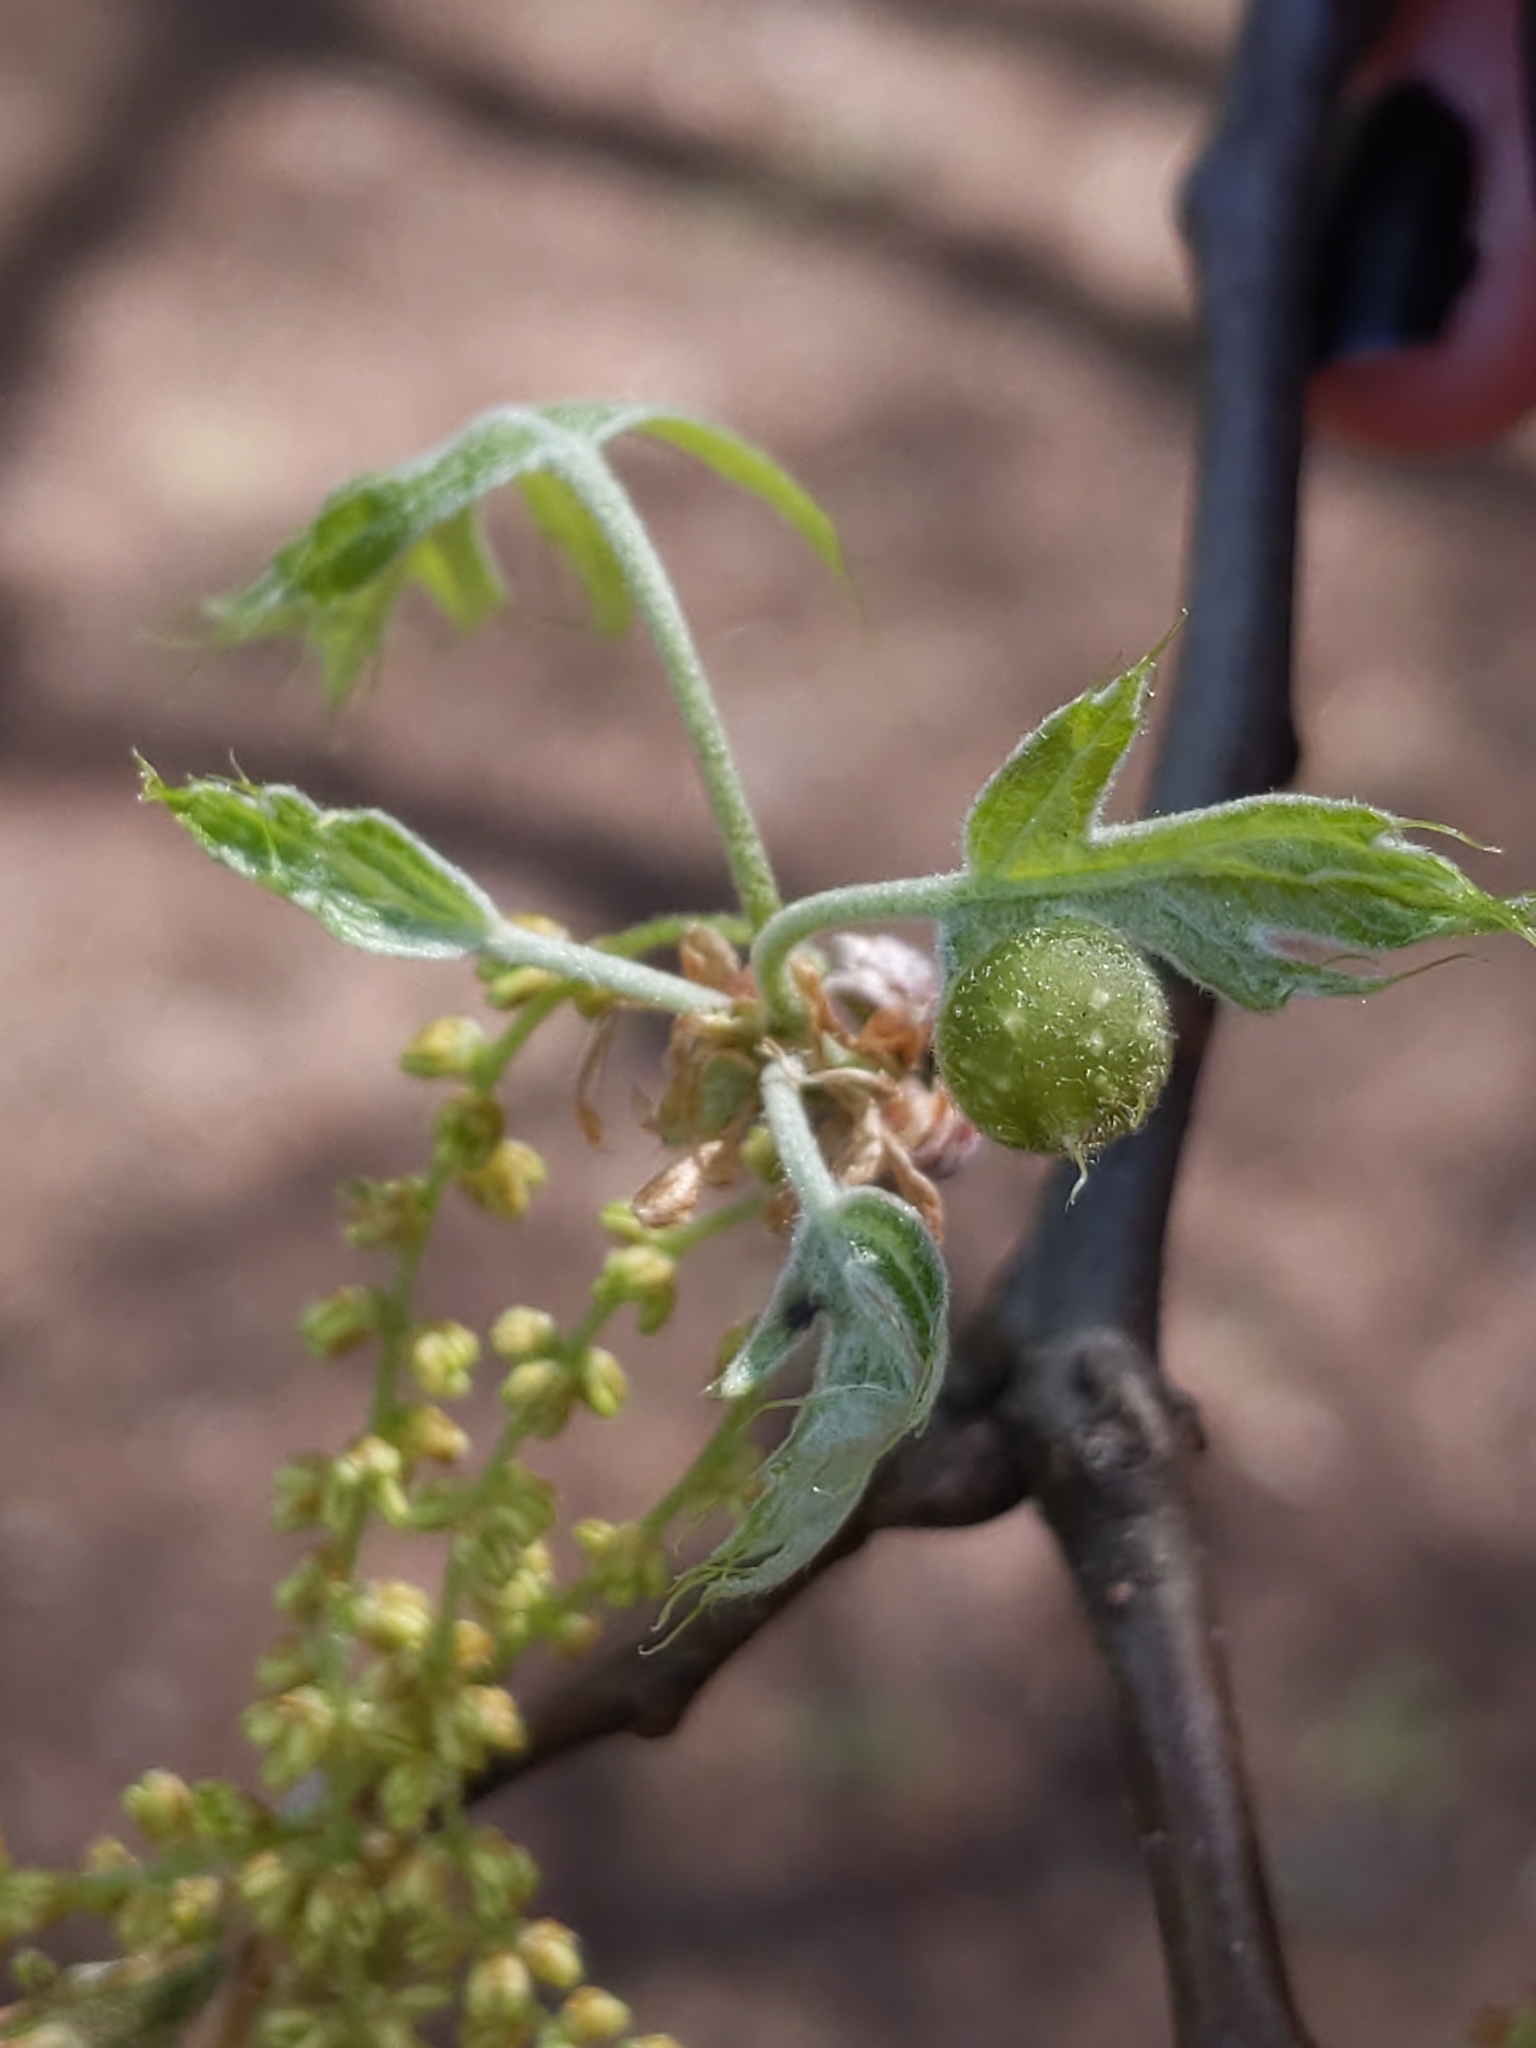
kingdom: Animalia
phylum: Arthropoda
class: Insecta
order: Hymenoptera
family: Cynipidae
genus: Dryocosmus
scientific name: Dryocosmus quercuspalustris
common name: Succulent oak gall wasp
